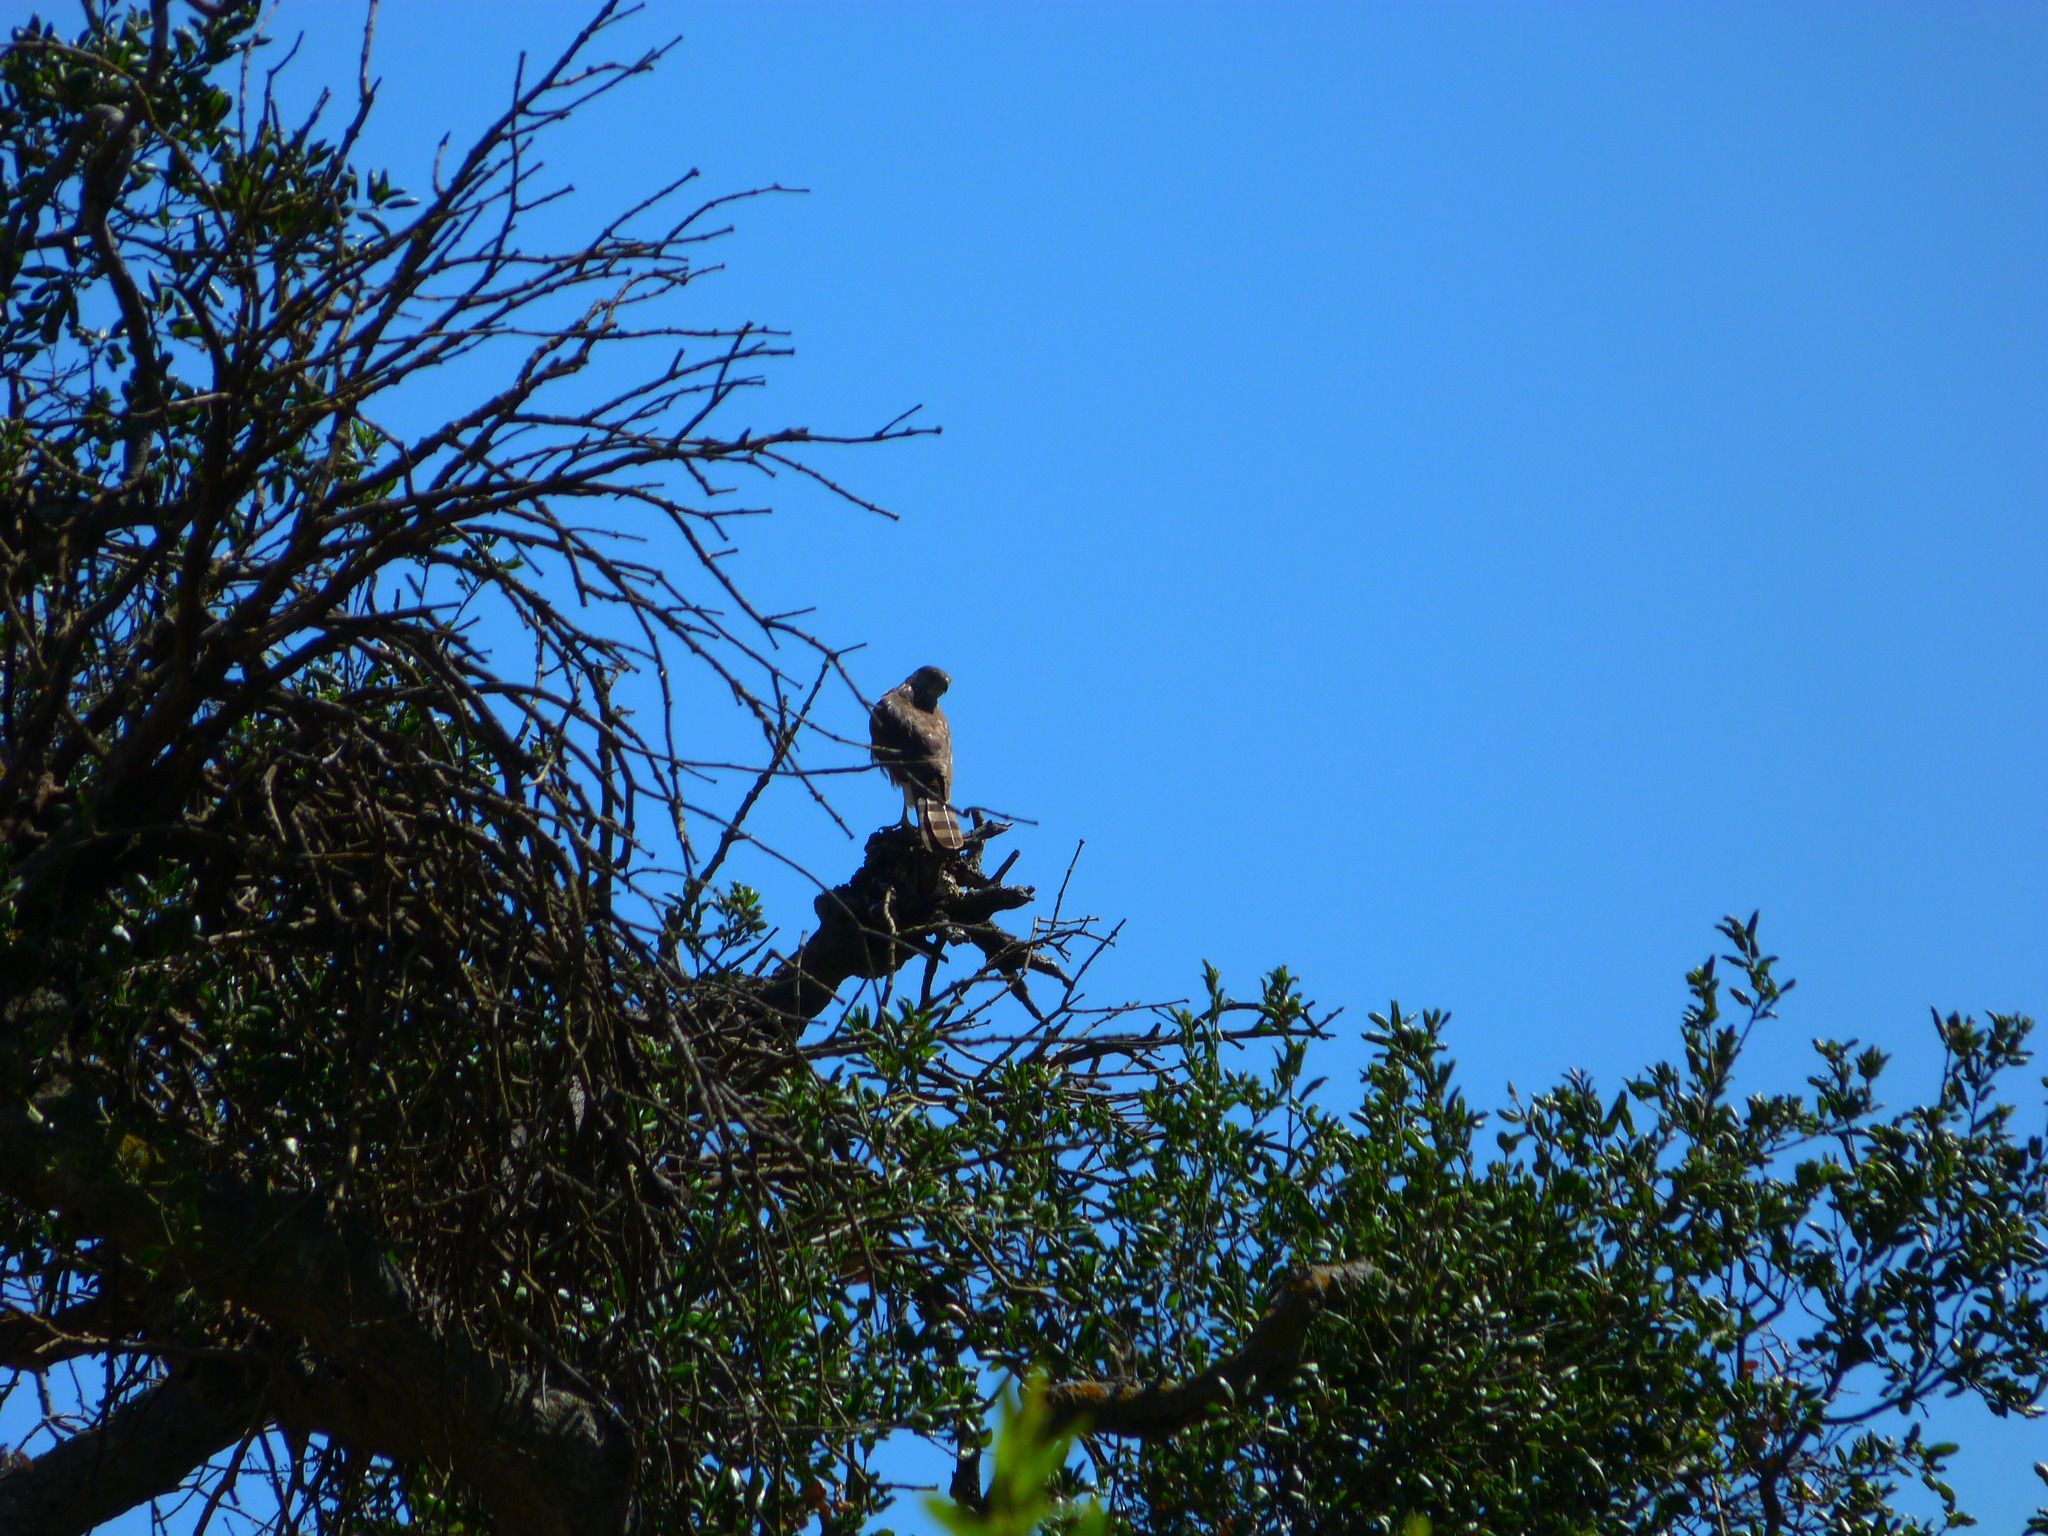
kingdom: Animalia
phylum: Chordata
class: Aves
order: Accipitriformes
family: Accipitridae
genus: Accipiter
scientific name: Accipiter cooperii
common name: Cooper's hawk
